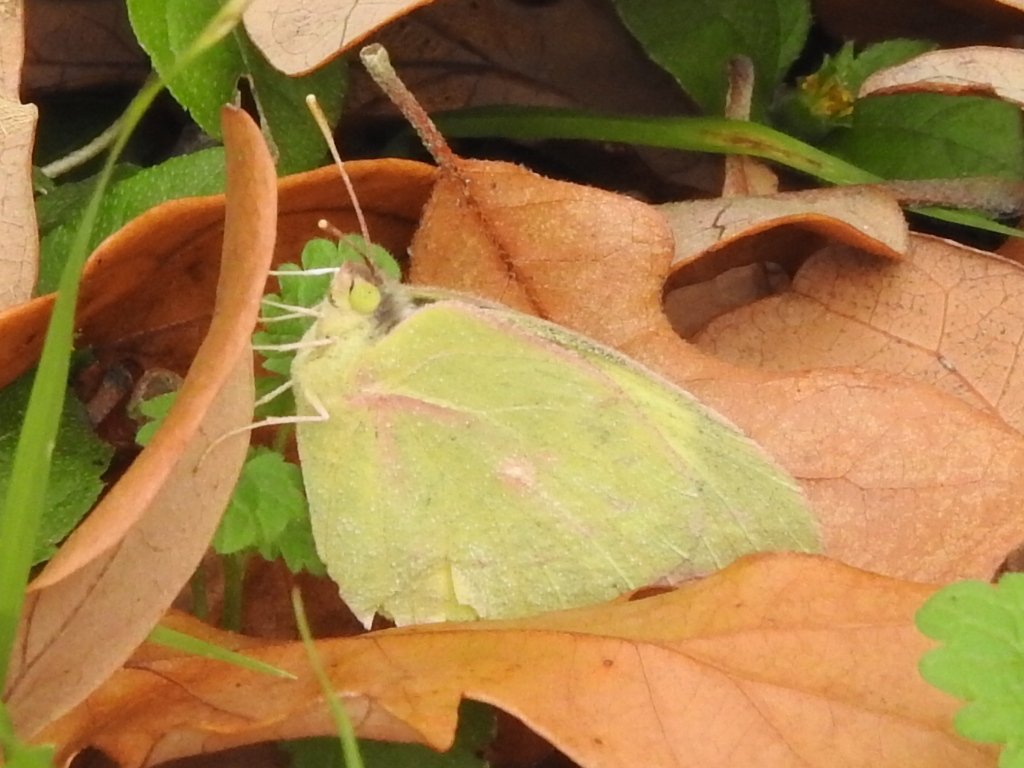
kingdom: Animalia
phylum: Arthropoda
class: Insecta
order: Lepidoptera
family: Pieridae
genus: Zerene
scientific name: Zerene cesonia
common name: Southern dogface
